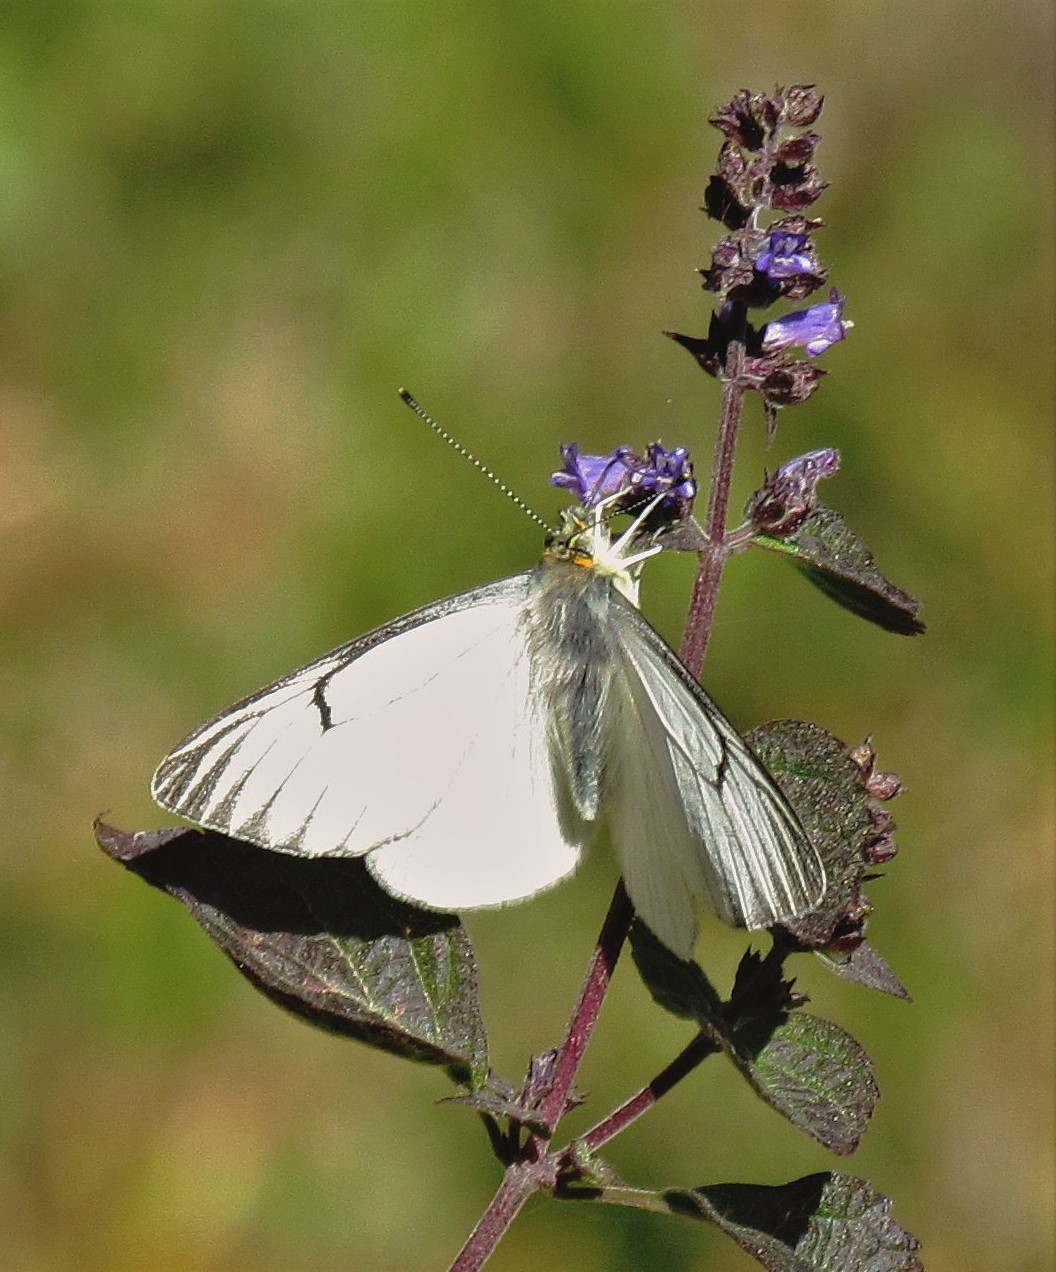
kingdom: Animalia
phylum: Arthropoda
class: Insecta
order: Lepidoptera
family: Pieridae
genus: Tatochila
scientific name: Tatochila orthodice
